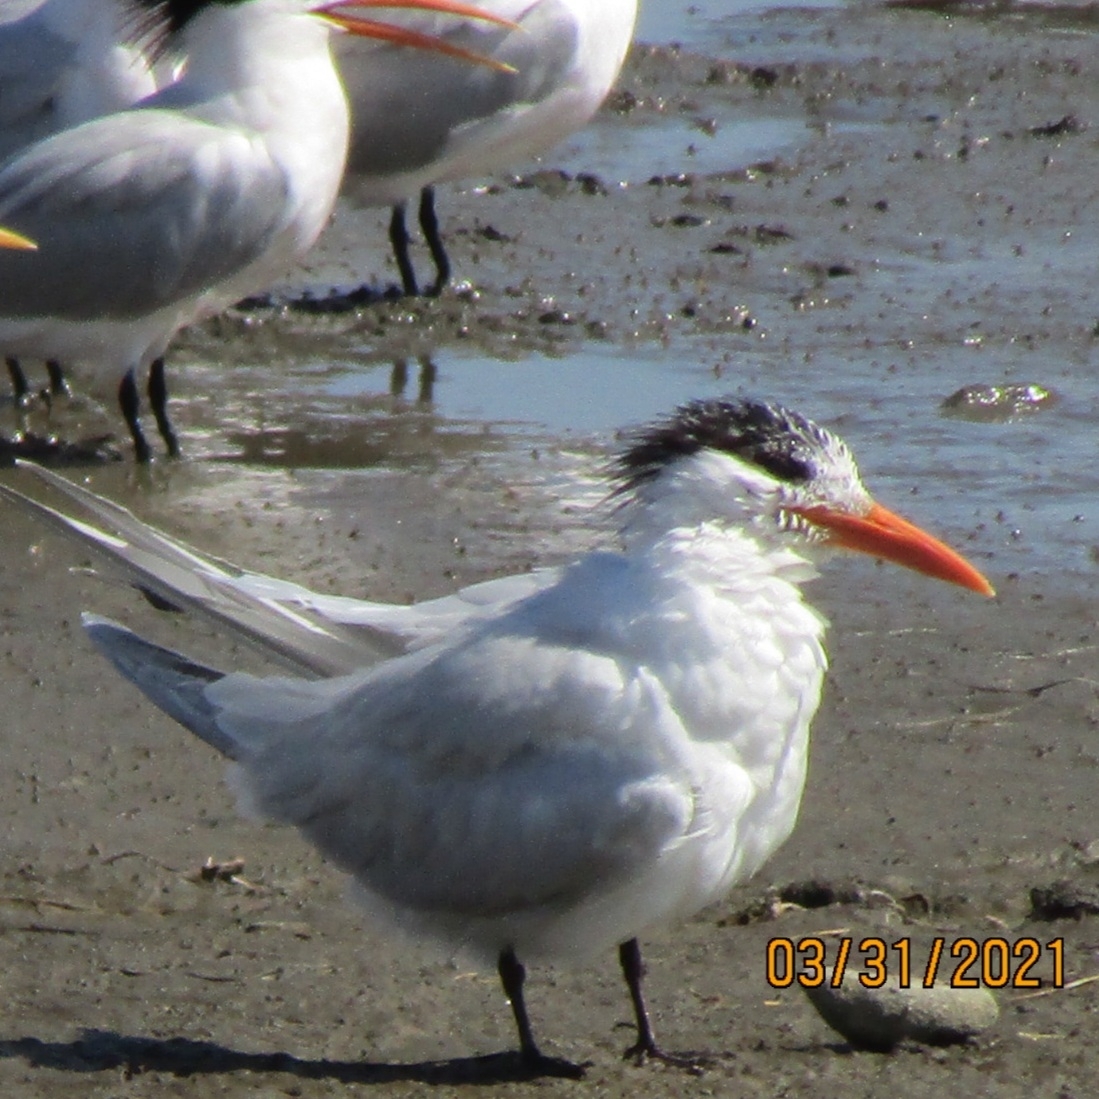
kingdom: Animalia
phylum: Chordata
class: Aves
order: Charadriiformes
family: Laridae
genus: Thalasseus
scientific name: Thalasseus maximus
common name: Royal tern
